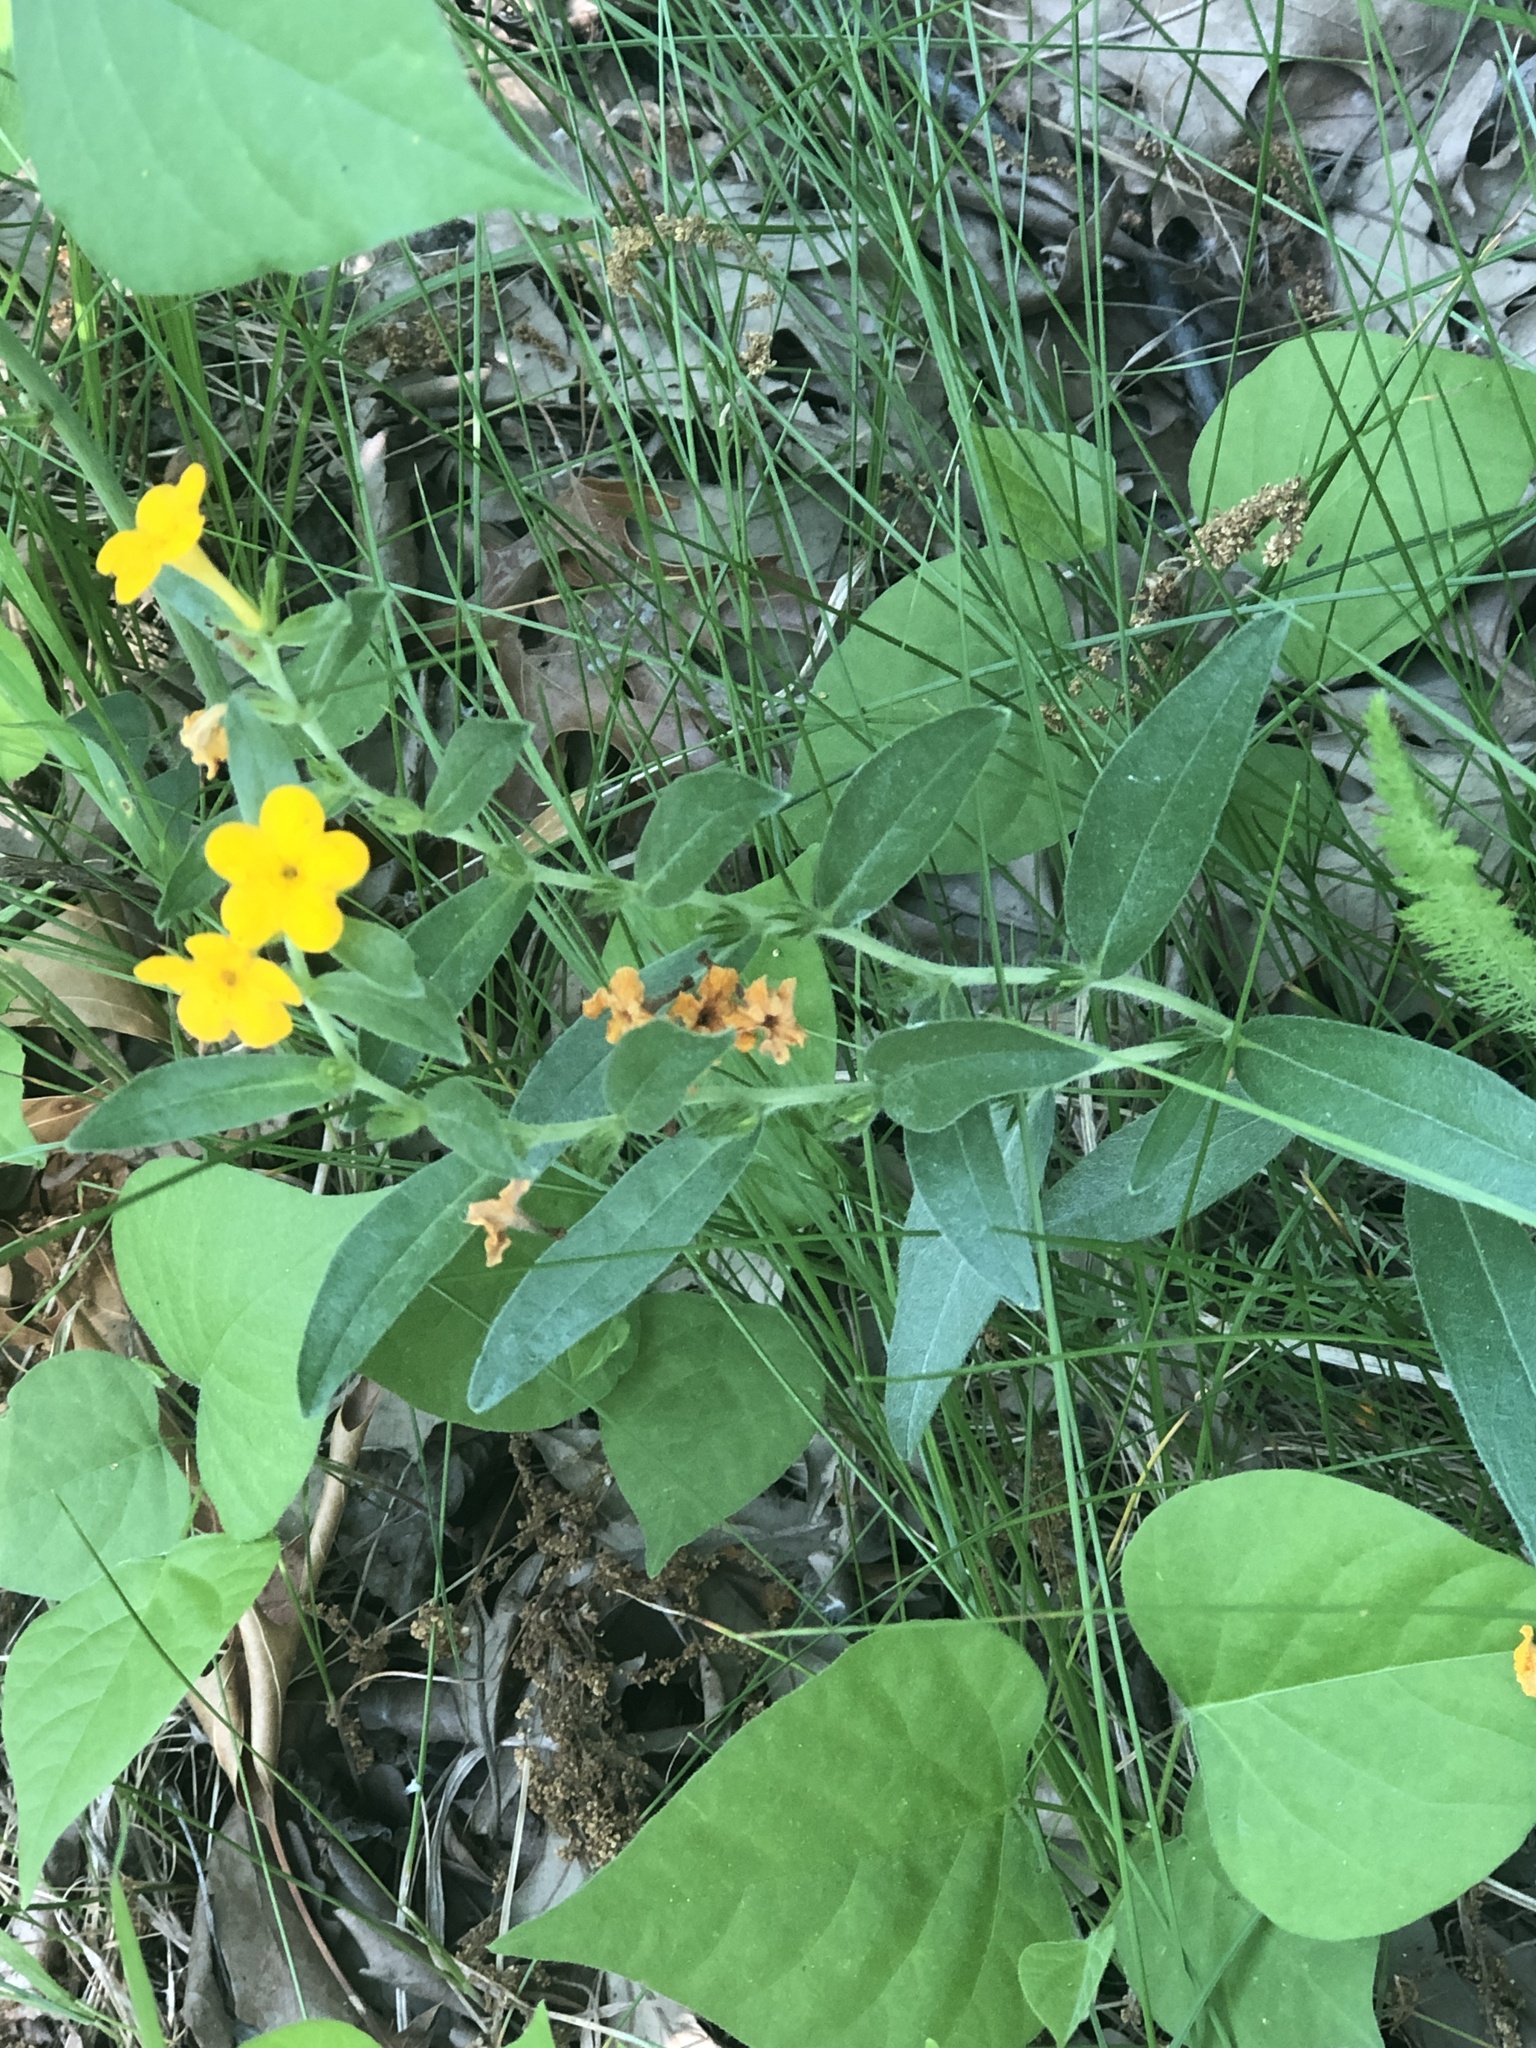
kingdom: Plantae
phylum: Tracheophyta
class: Magnoliopsida
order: Boraginales
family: Boraginaceae
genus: Lithospermum
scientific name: Lithospermum canescens
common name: Hoary puccoon
